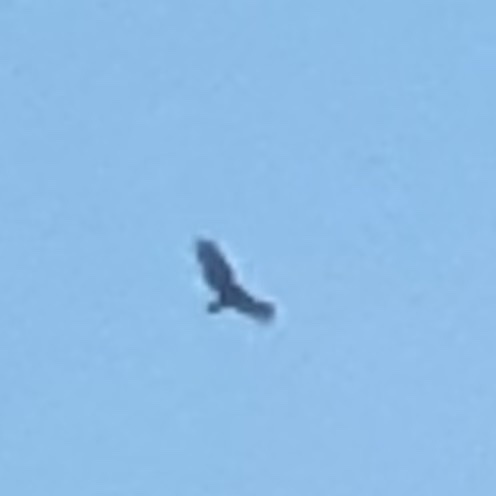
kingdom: Animalia
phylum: Chordata
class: Aves
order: Accipitriformes
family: Cathartidae
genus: Cathartes
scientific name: Cathartes aura
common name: Turkey vulture
